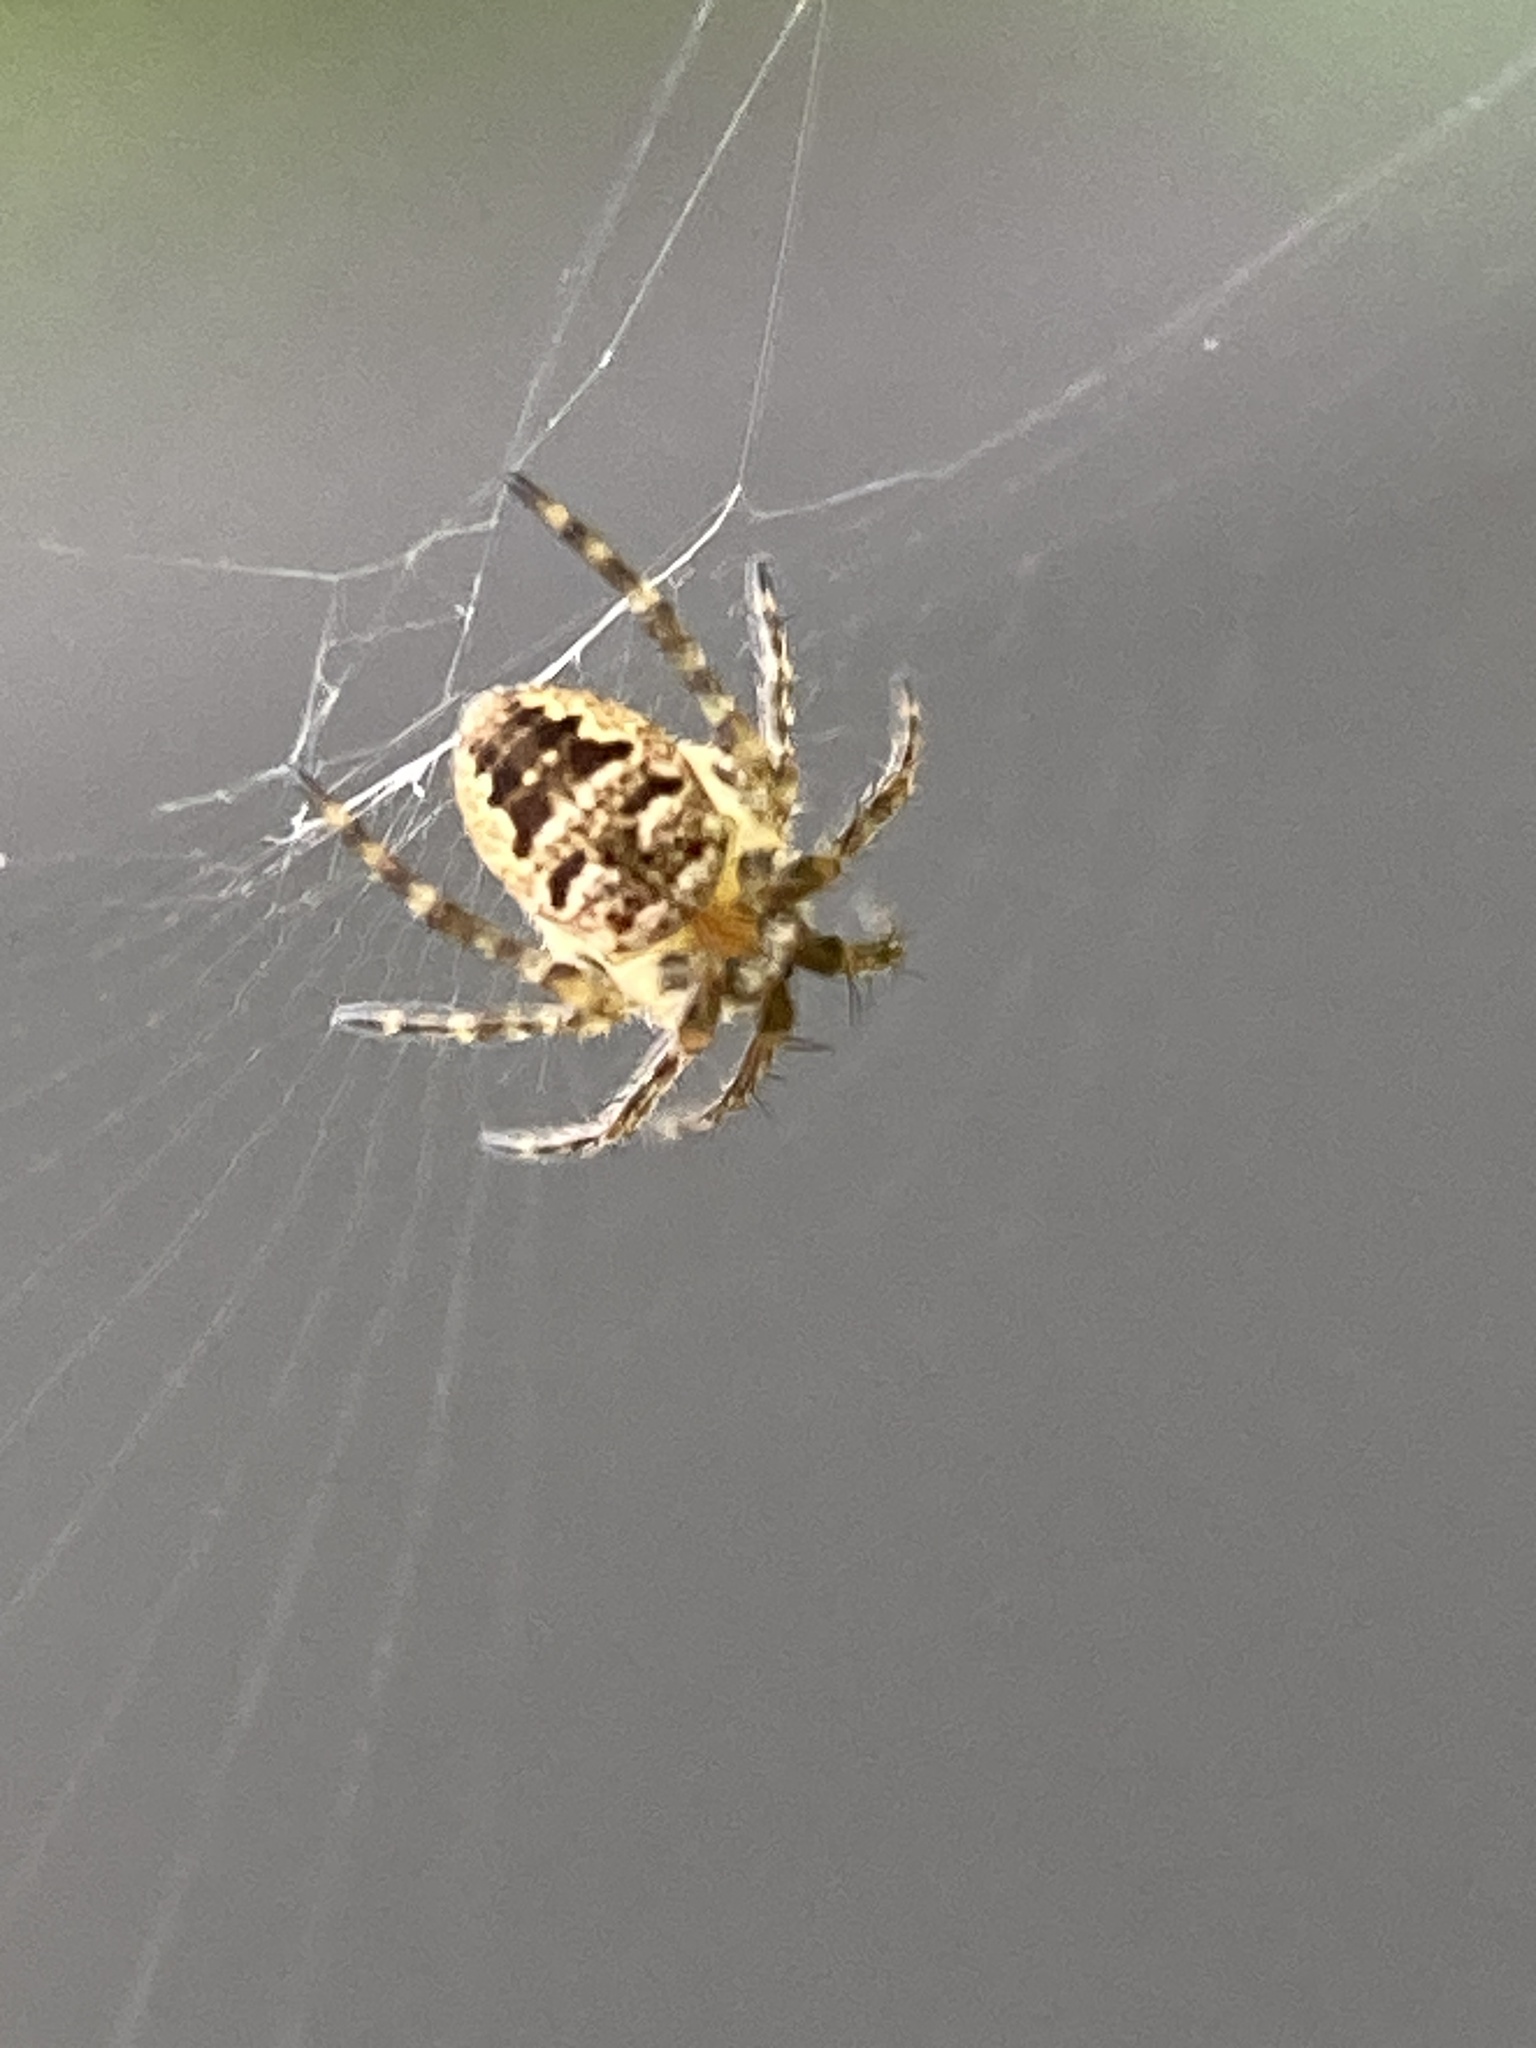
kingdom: Animalia
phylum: Arthropoda
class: Arachnida
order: Araneae
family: Araneidae
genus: Zilla
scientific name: Zilla diodia
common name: Zilla diodia
